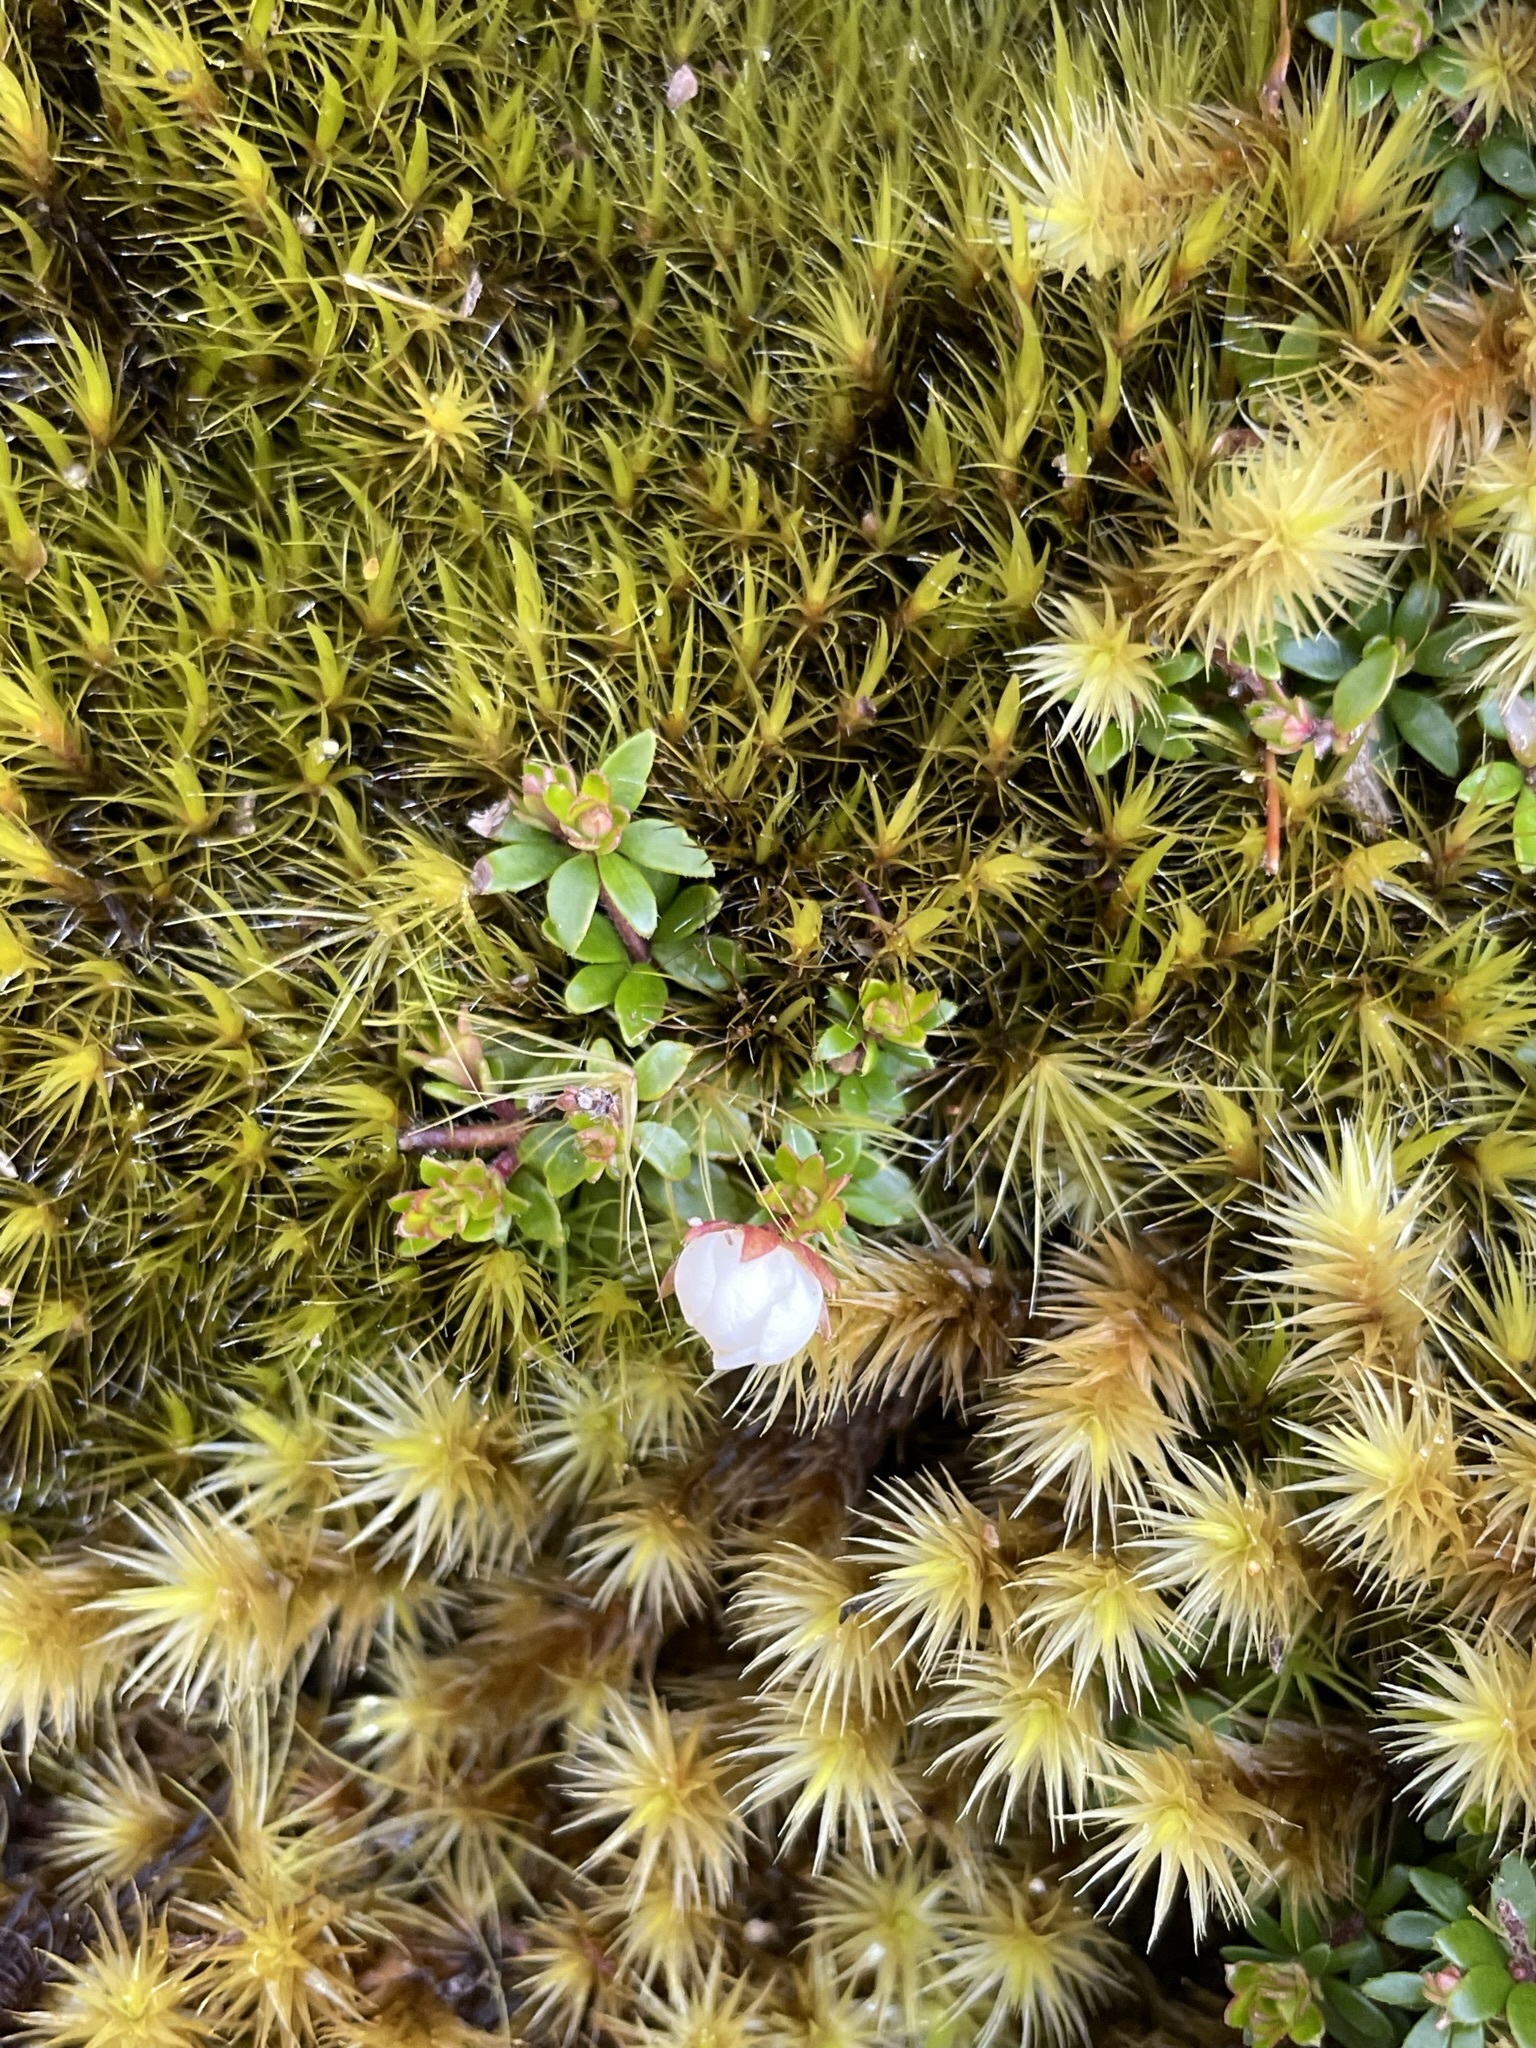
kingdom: Plantae
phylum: Tracheophyta
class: Magnoliopsida
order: Oxalidales
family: Cunoniaceae
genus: Bauera
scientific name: Bauera rubioides
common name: River-rose
